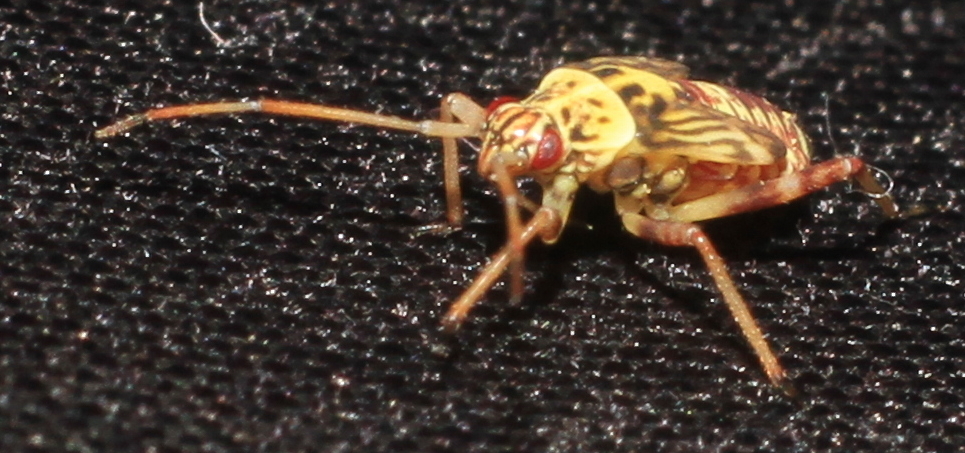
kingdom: Animalia
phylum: Arthropoda
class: Insecta
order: Hemiptera
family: Miridae
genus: Rhabdomiris
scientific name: Rhabdomiris striatellus
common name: Plant bug
